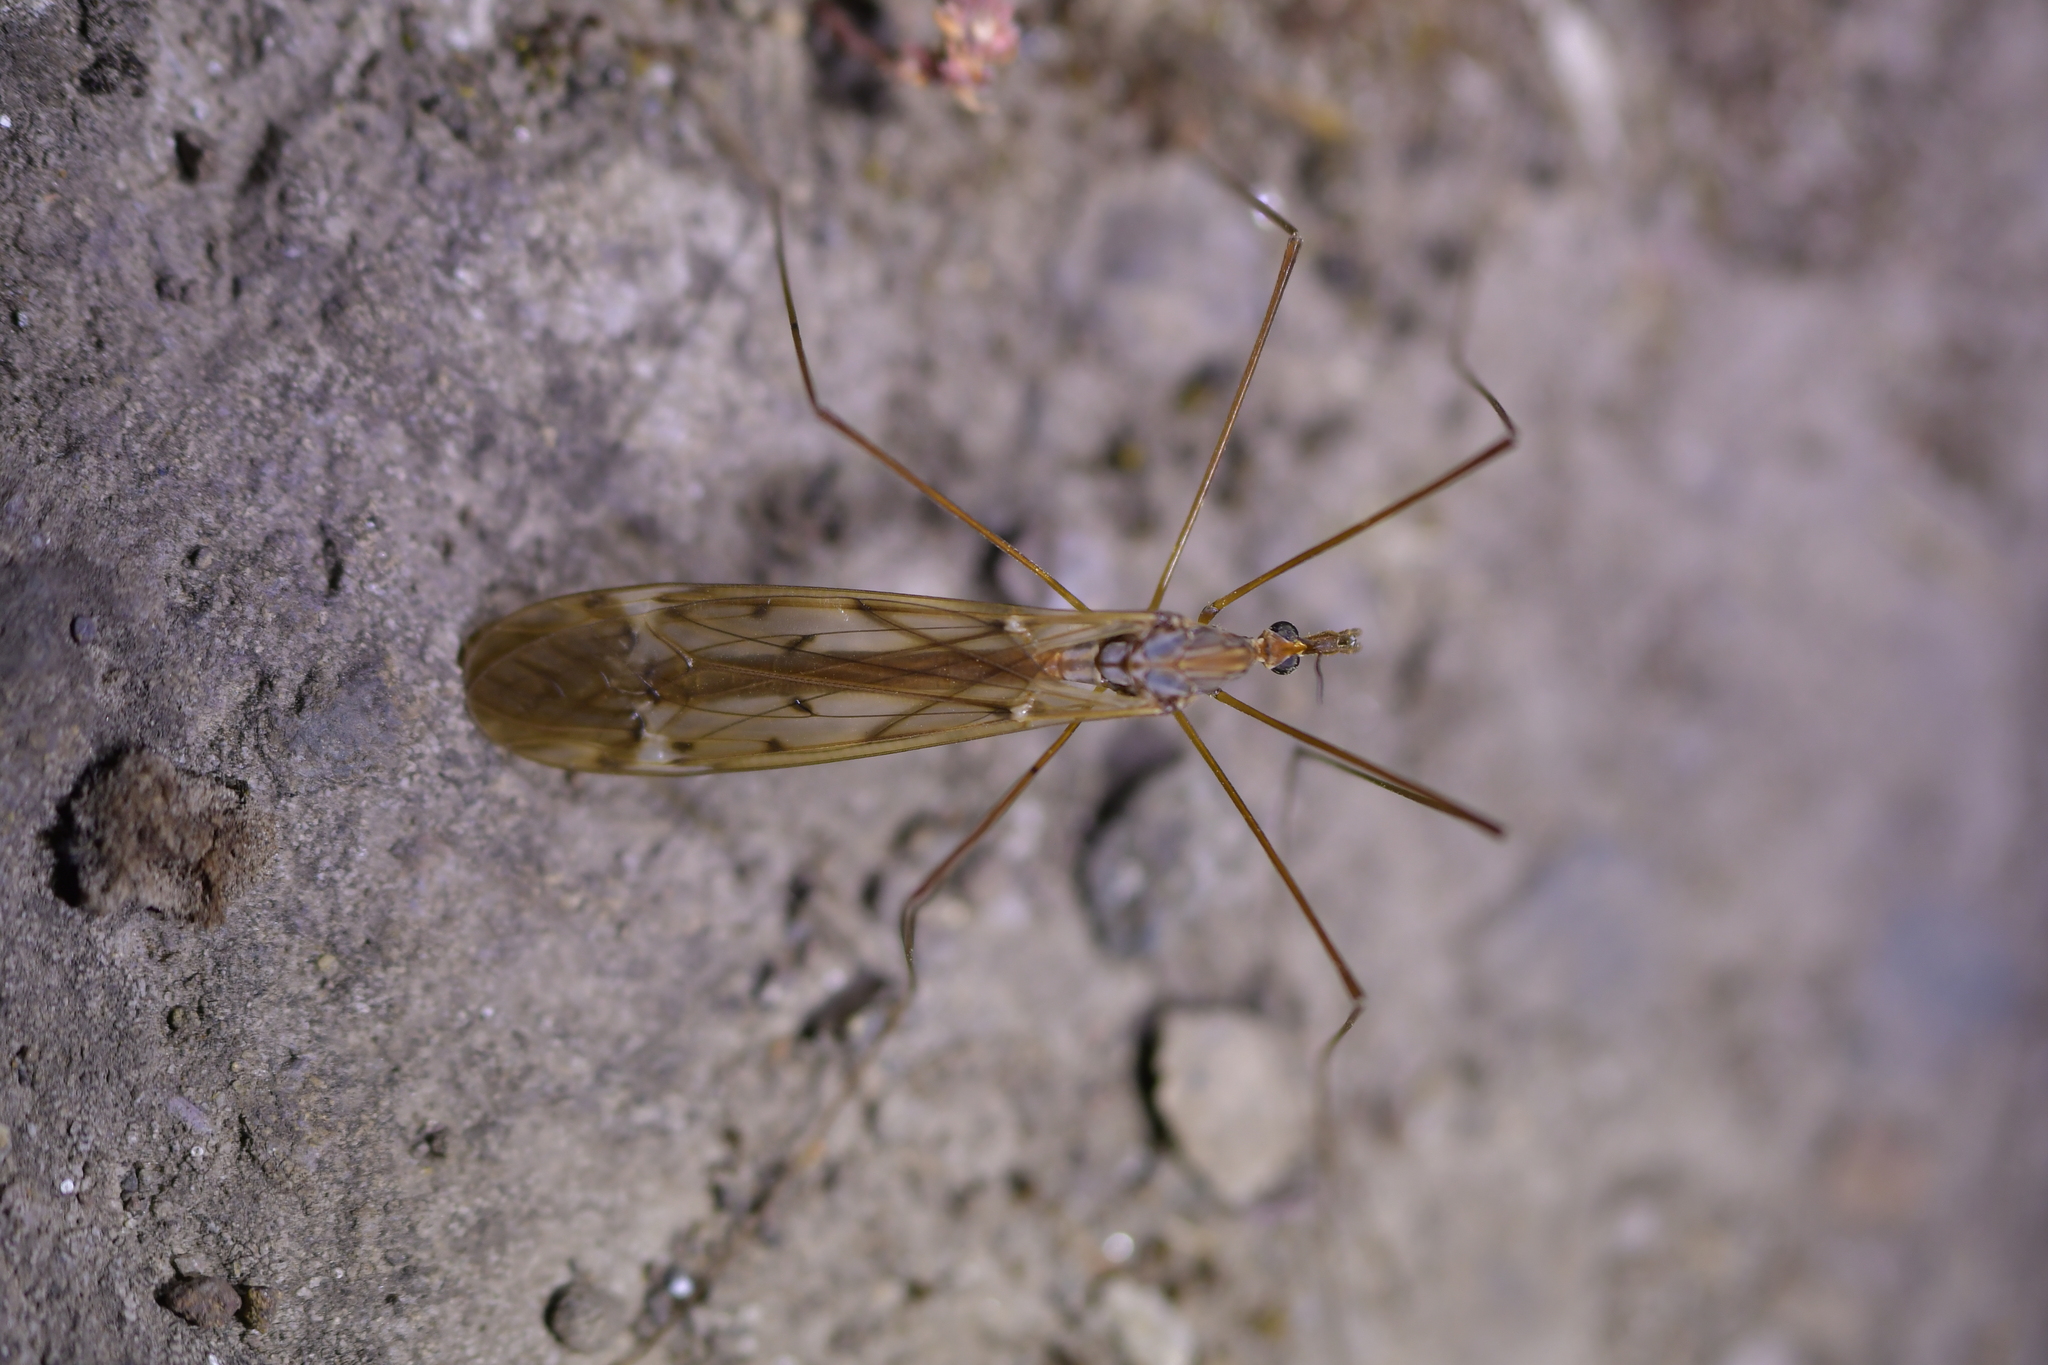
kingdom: Animalia
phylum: Arthropoda
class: Insecta
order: Diptera
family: Tipulidae
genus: Zelandotipula
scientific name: Zelandotipula novarae
